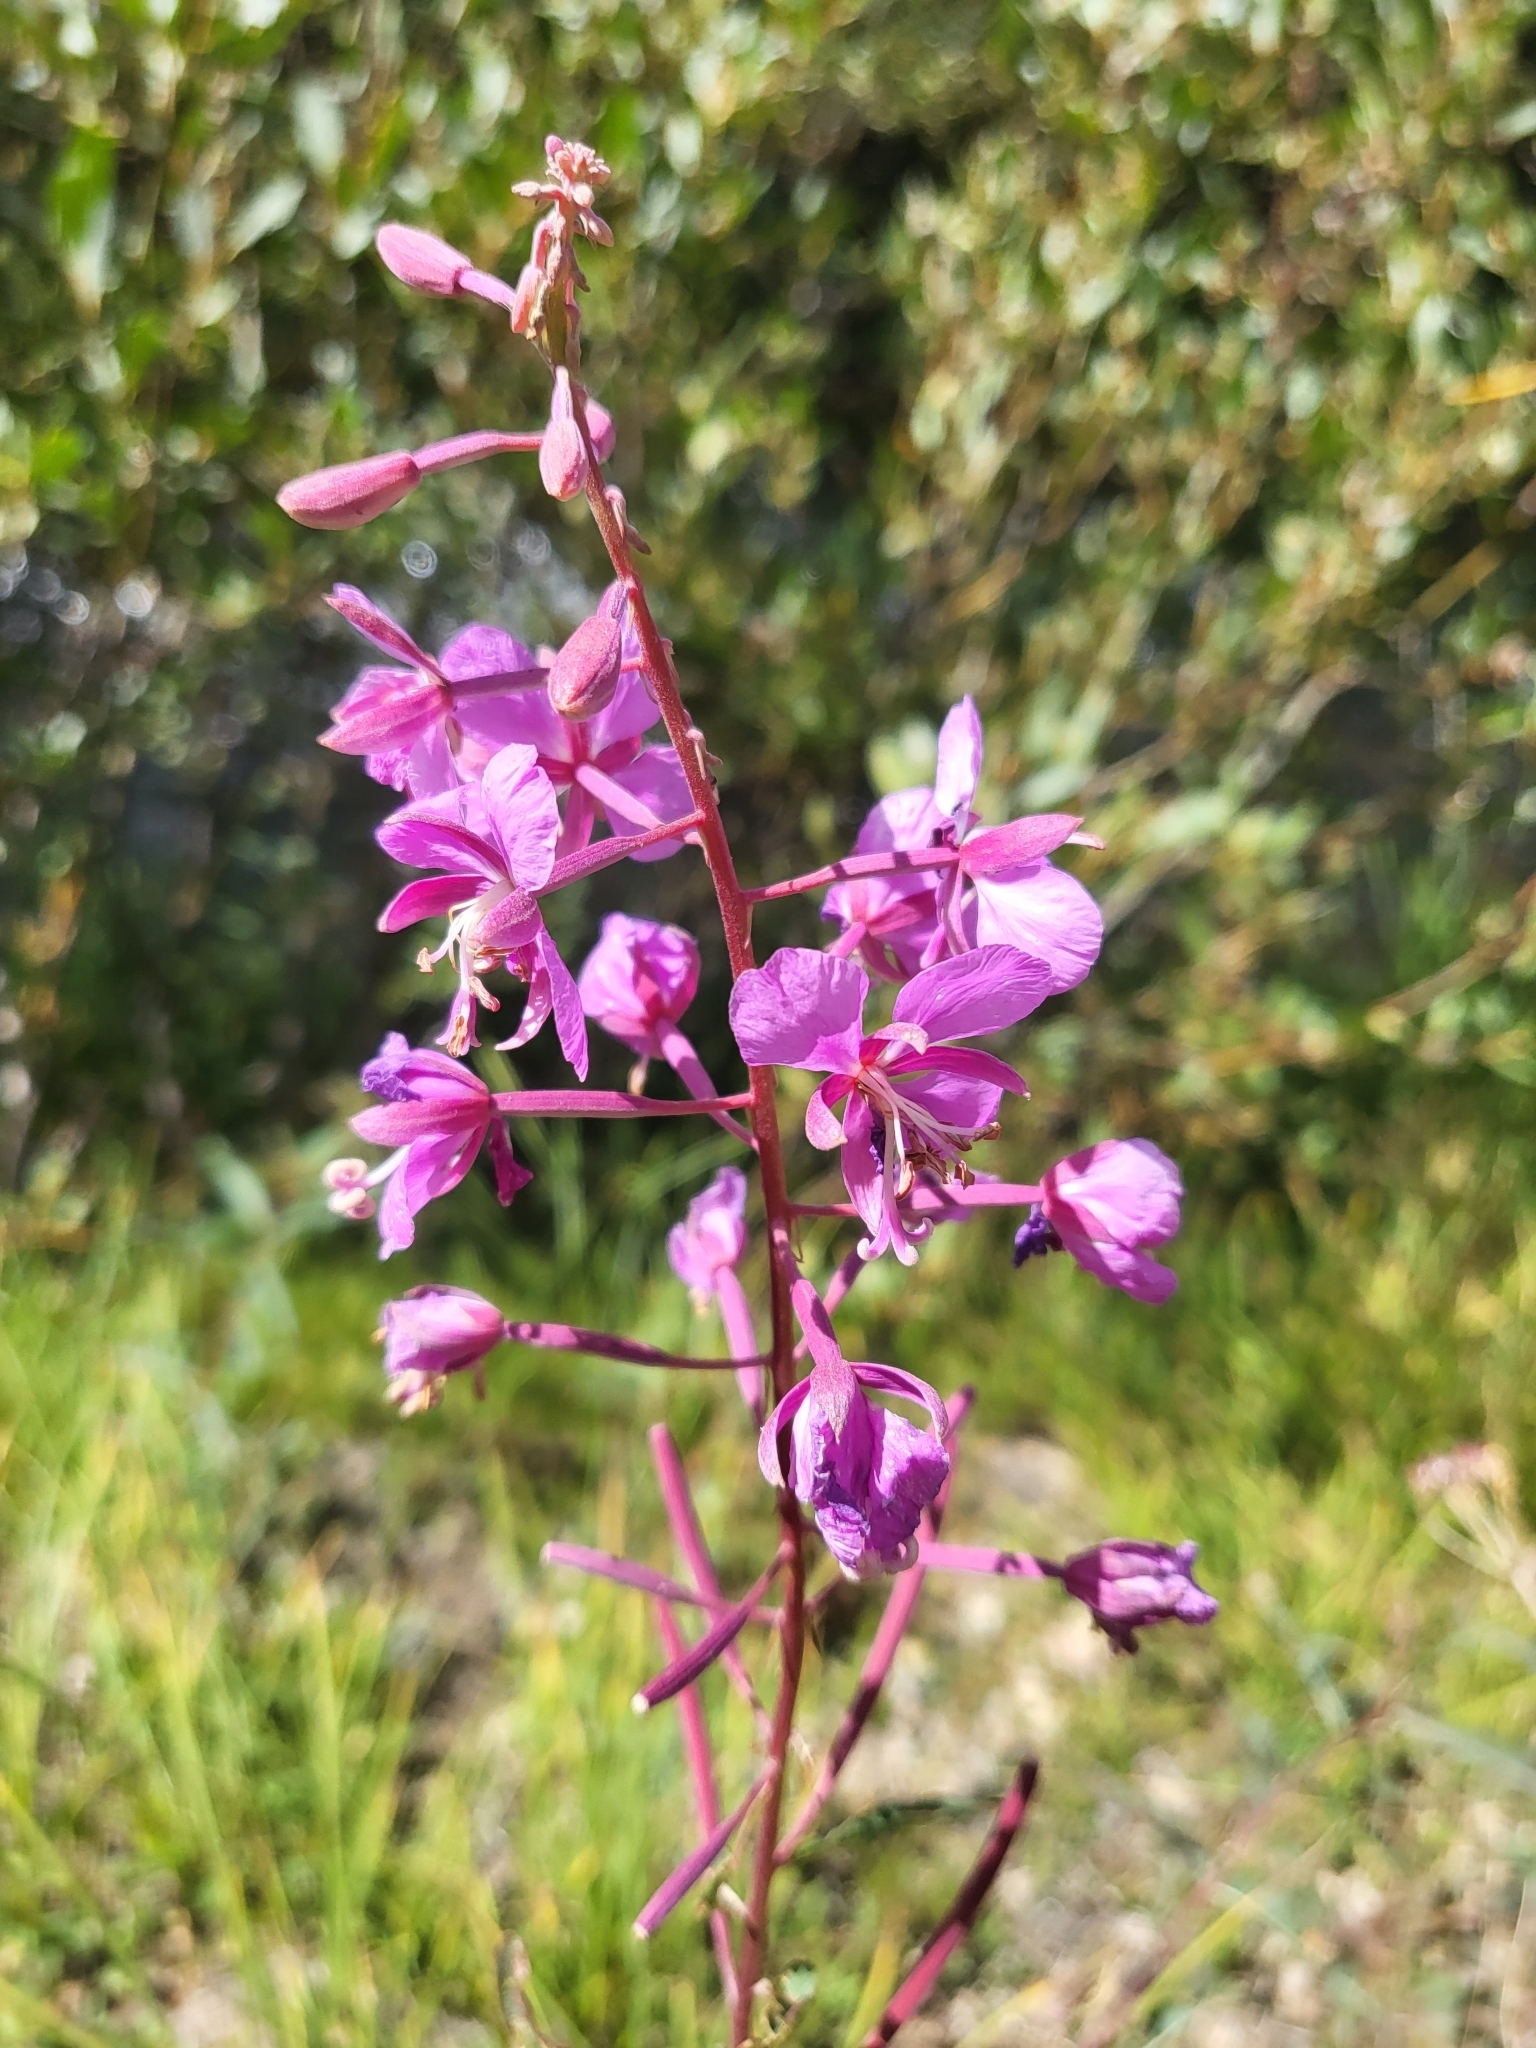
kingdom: Plantae
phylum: Tracheophyta
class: Magnoliopsida
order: Myrtales
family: Onagraceae
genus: Chamaenerion
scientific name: Chamaenerion angustifolium
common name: Fireweed
